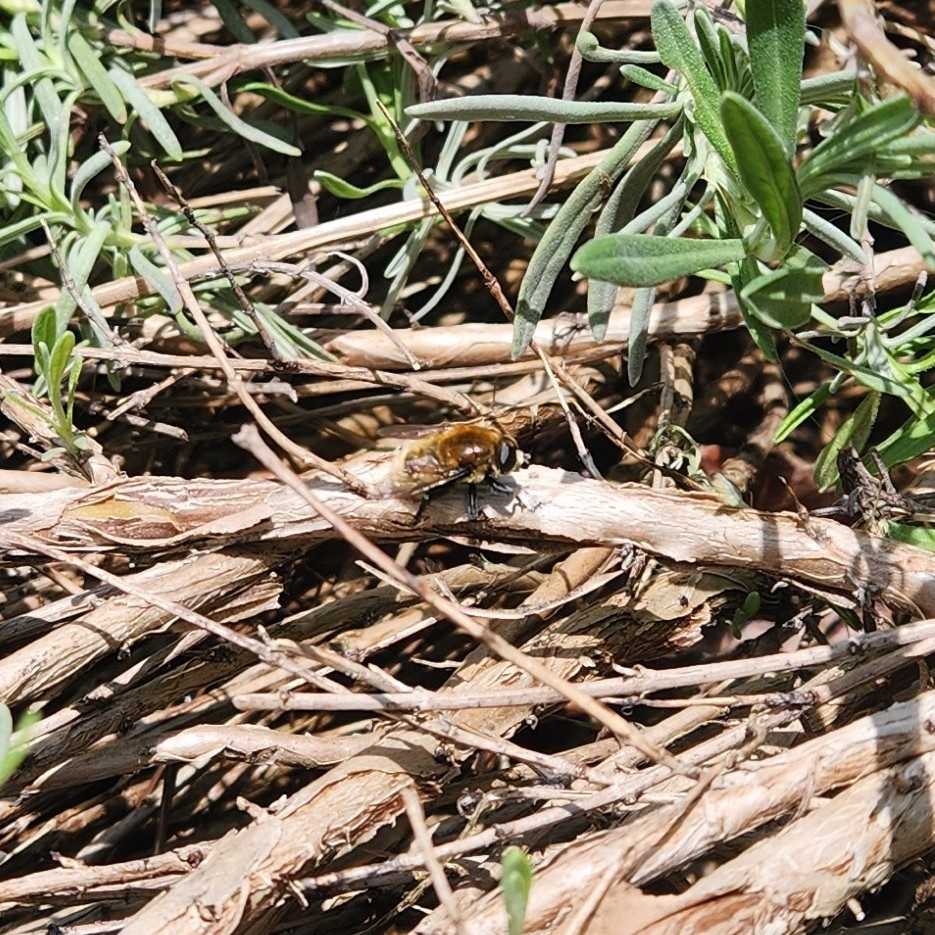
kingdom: Animalia
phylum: Arthropoda
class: Insecta
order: Diptera
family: Syrphidae
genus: Merodon
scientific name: Merodon equestris
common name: Greater bulb-fly
